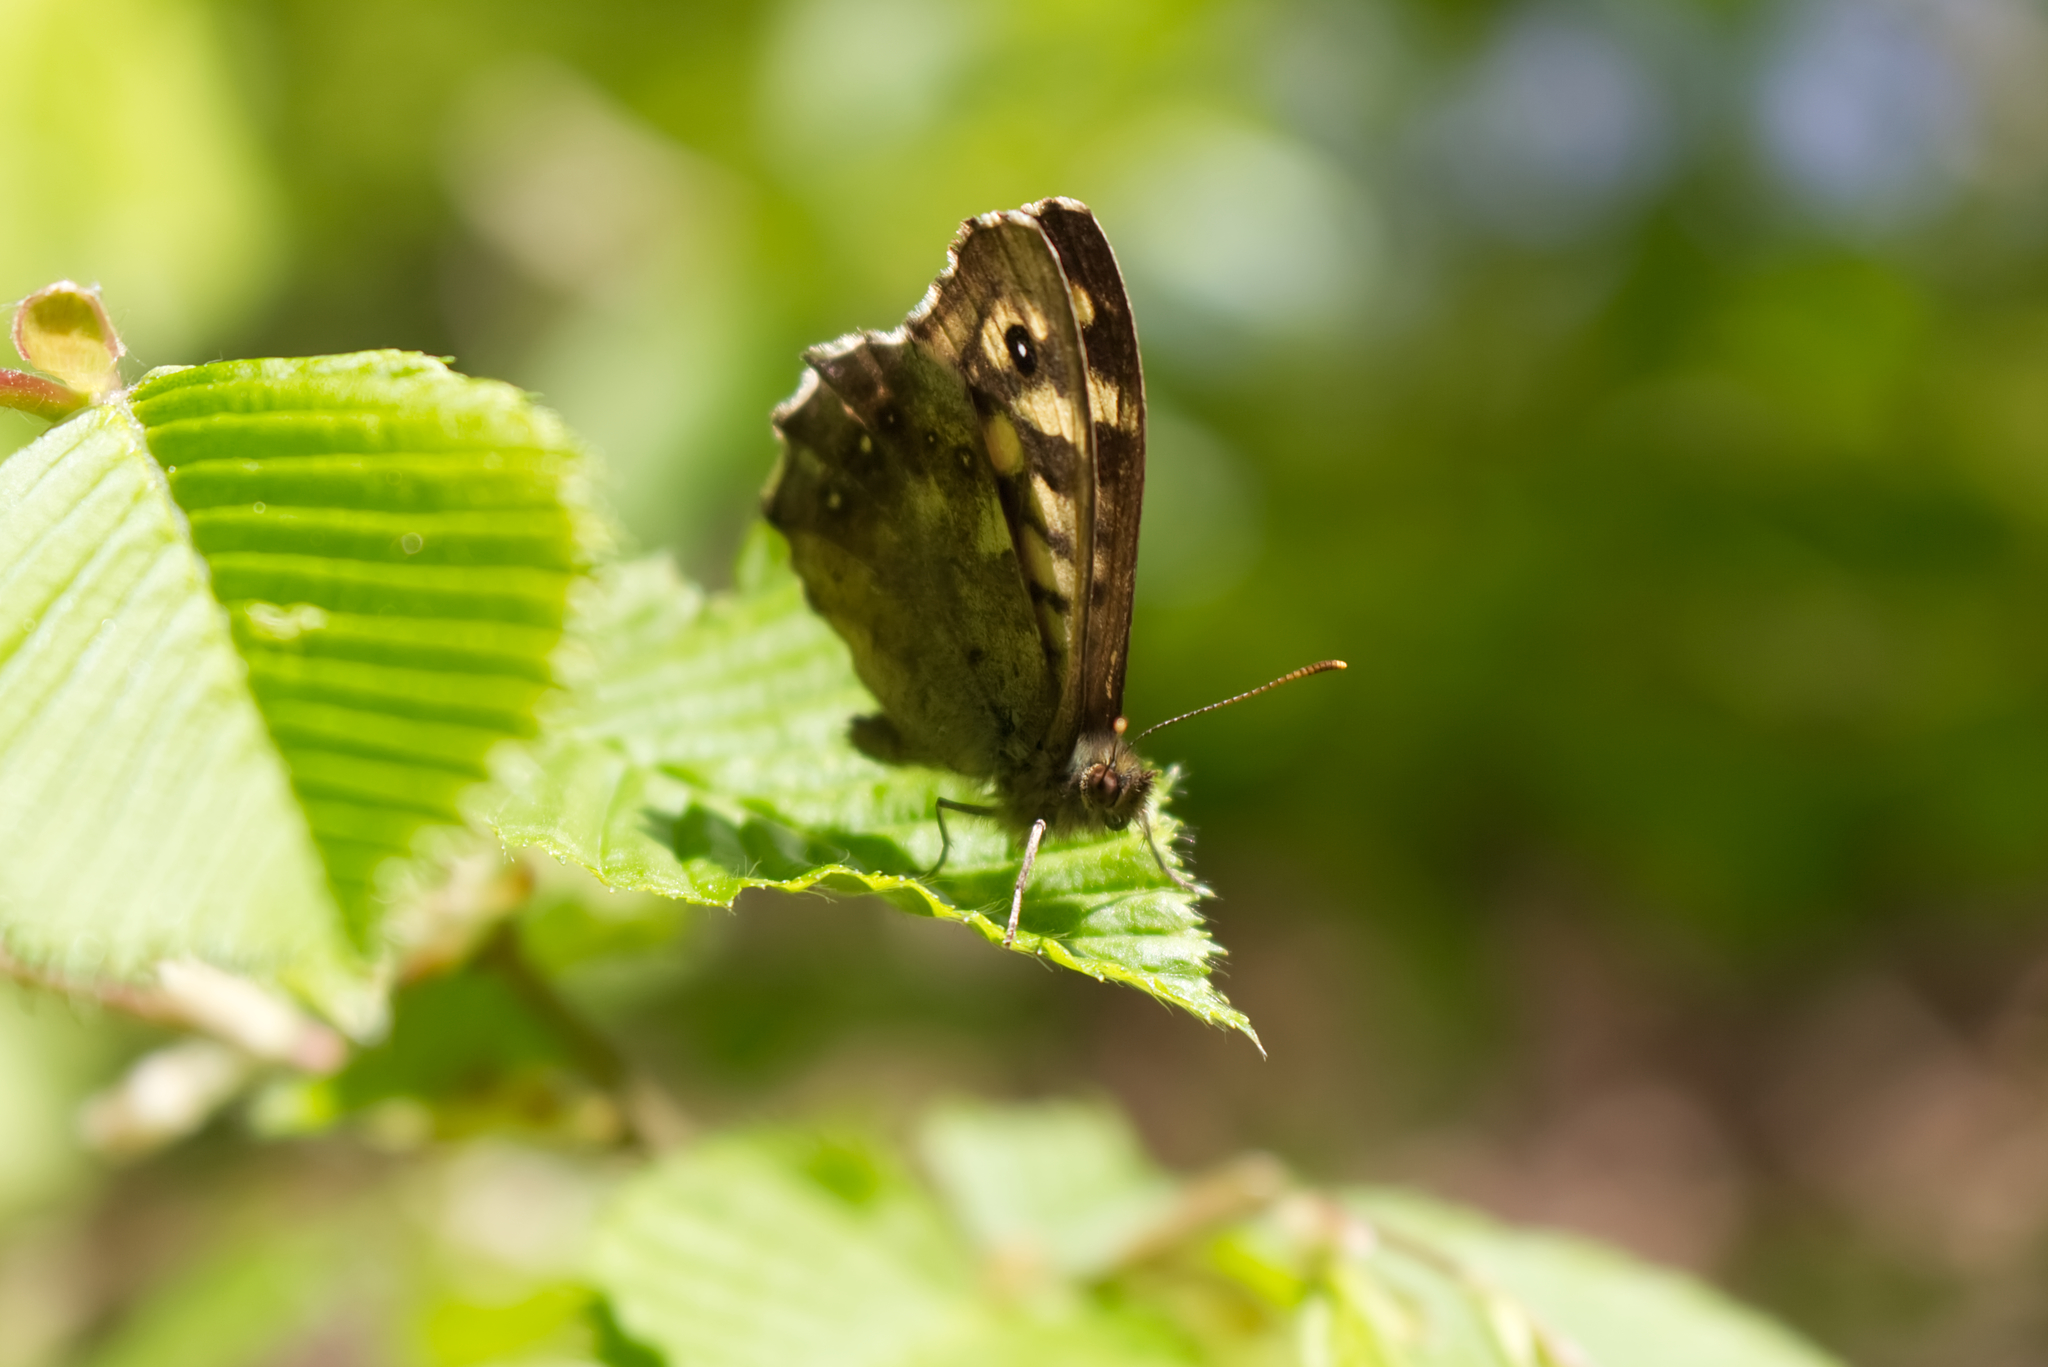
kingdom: Animalia
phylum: Arthropoda
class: Insecta
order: Lepidoptera
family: Nymphalidae
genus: Pararge
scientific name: Pararge aegeria
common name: Speckled wood
